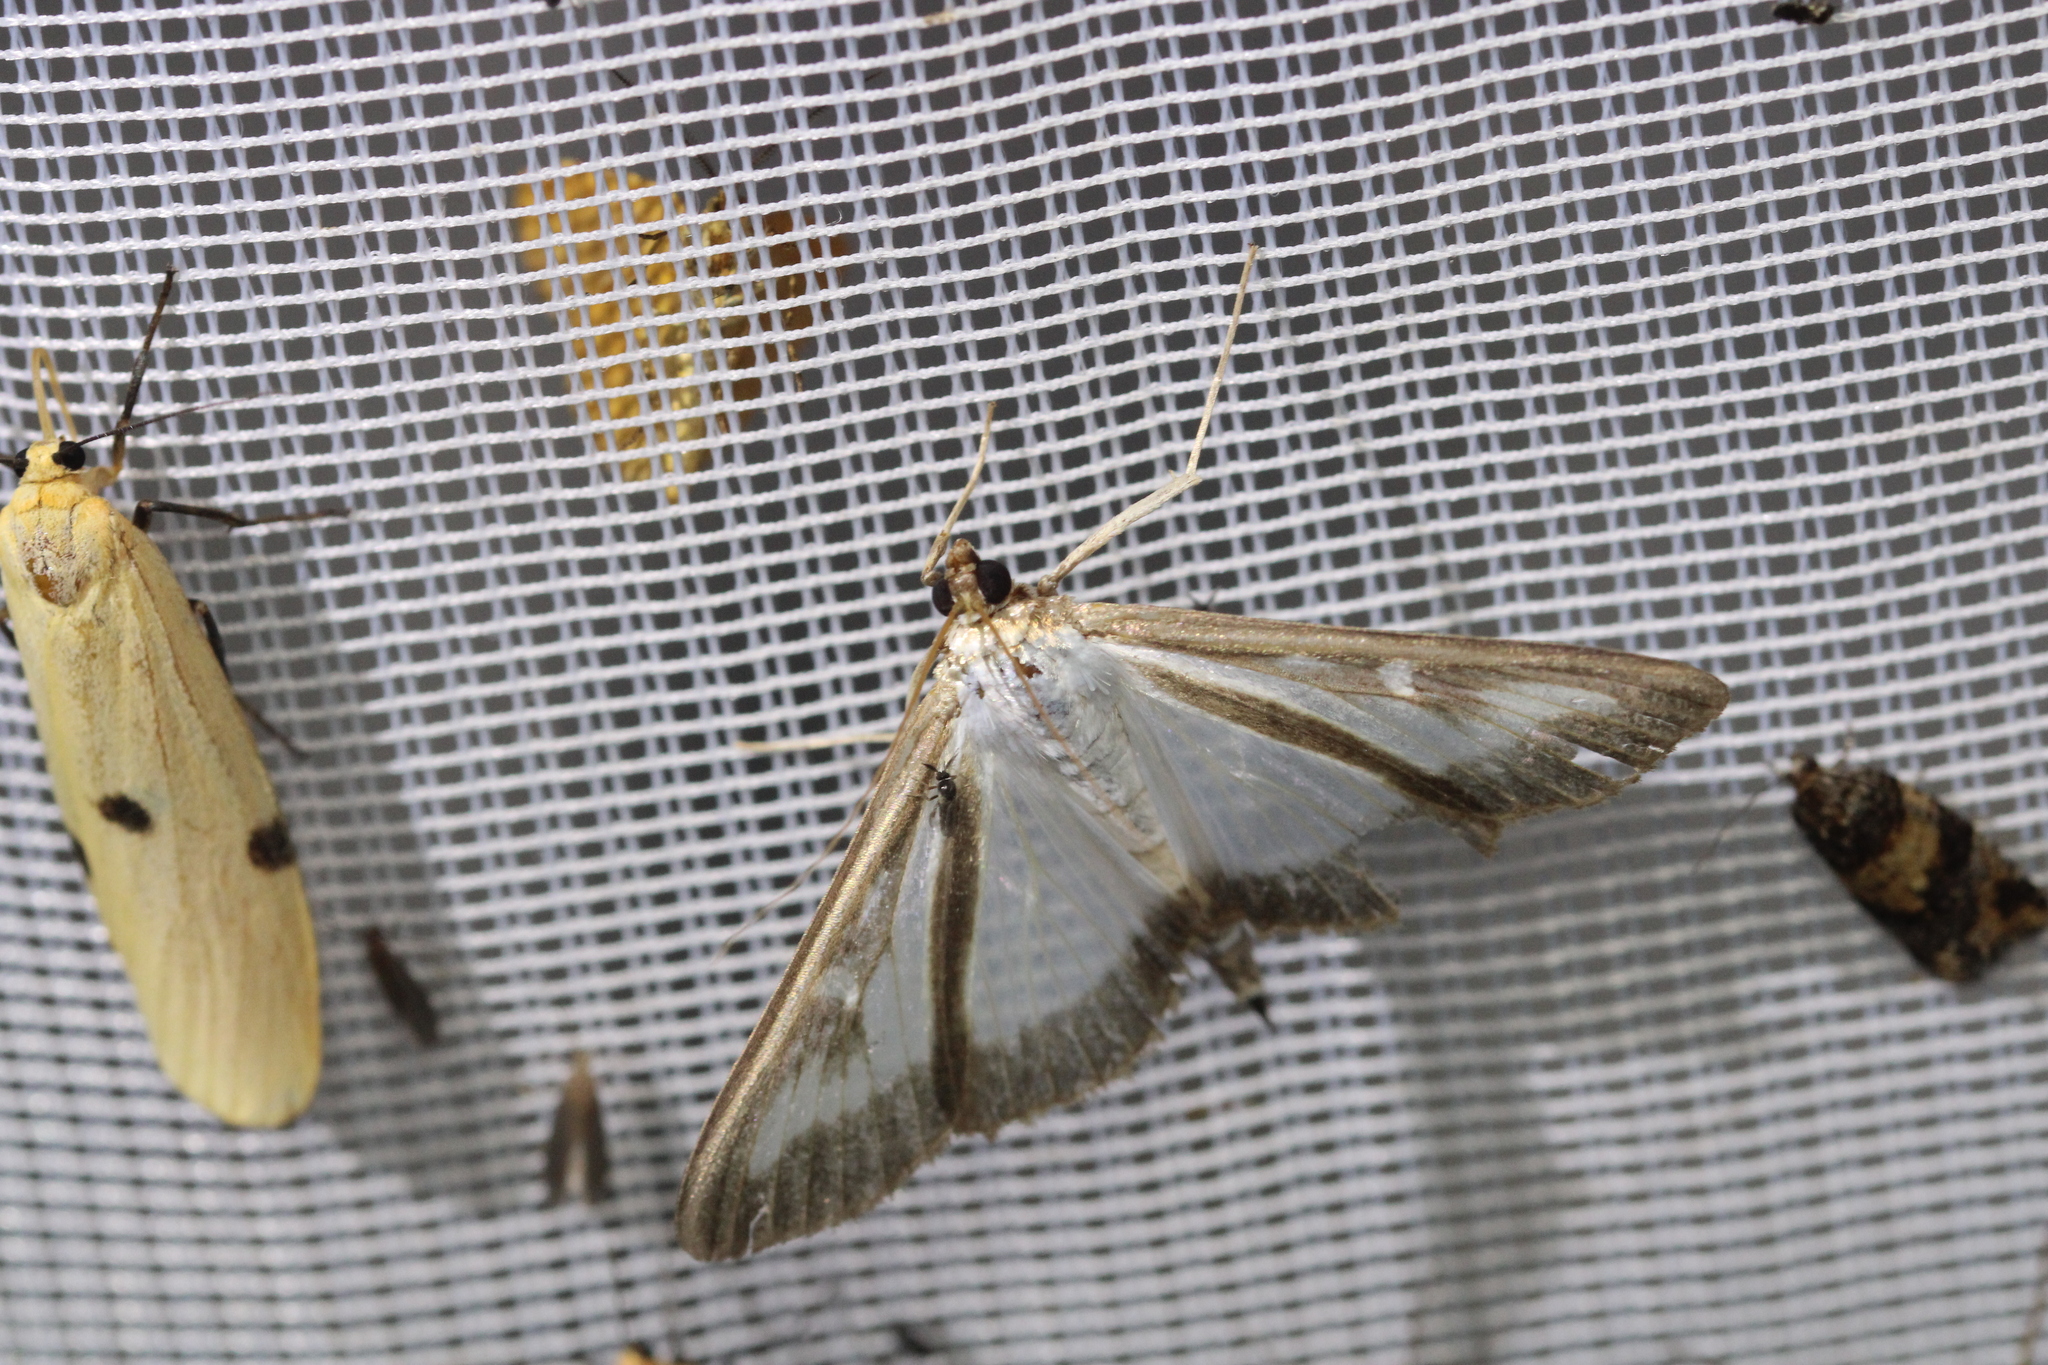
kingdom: Animalia
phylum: Arthropoda
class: Insecta
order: Lepidoptera
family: Crambidae
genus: Cydalima
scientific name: Cydalima perspectalis
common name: Box tree moth
